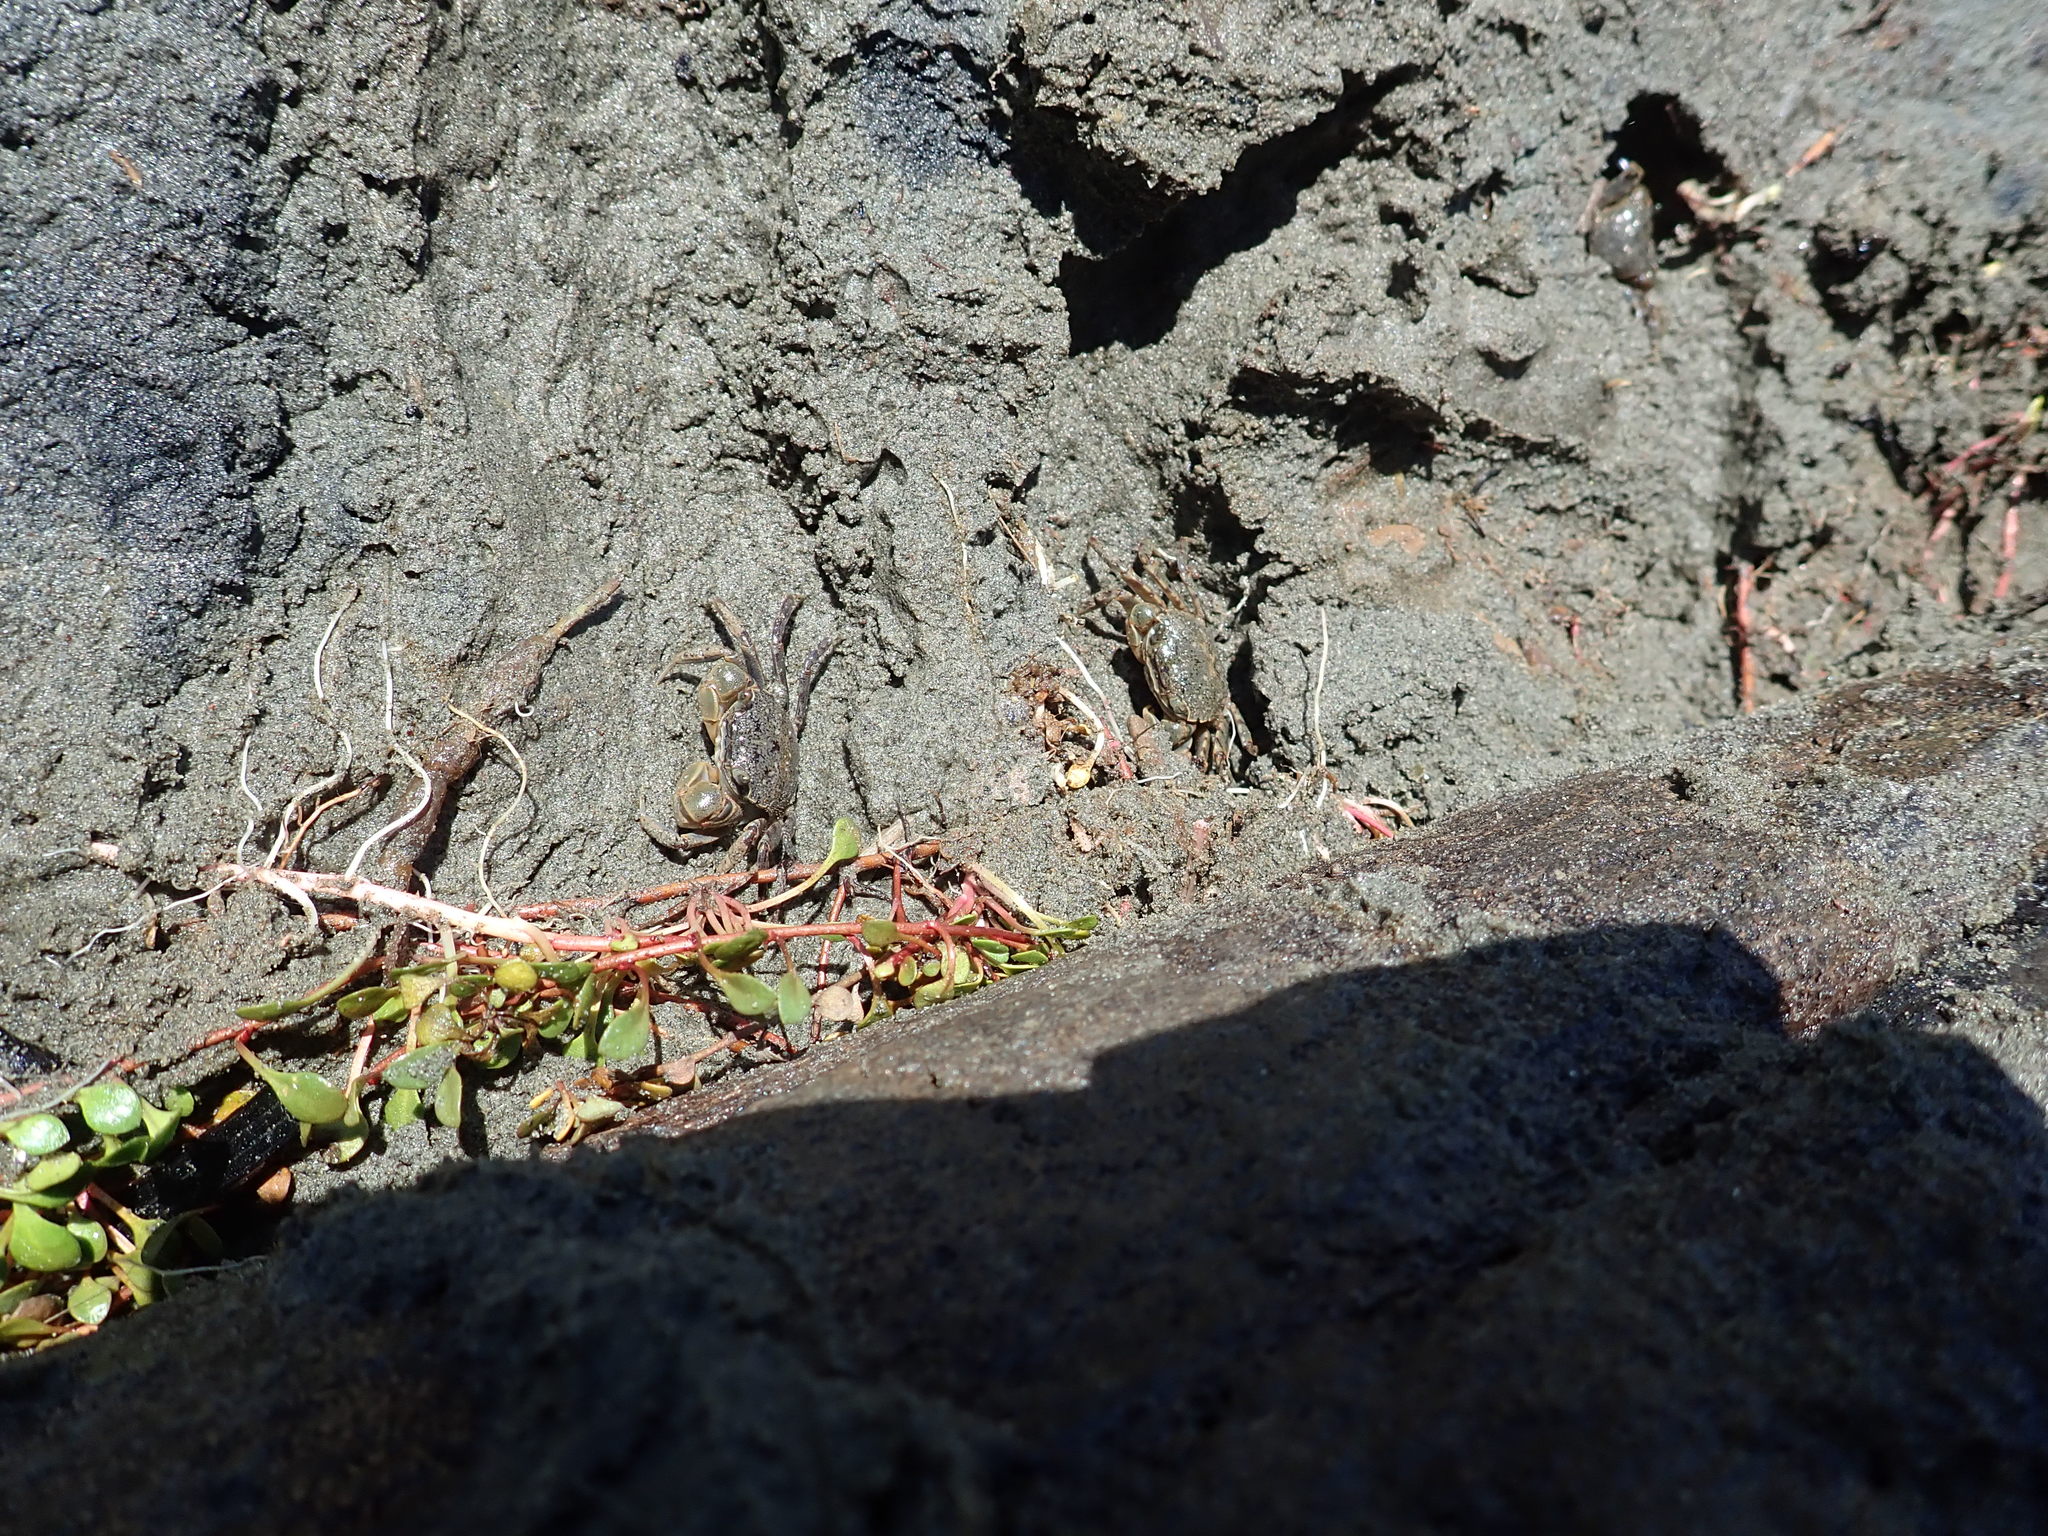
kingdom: Animalia
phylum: Arthropoda
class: Malacostraca
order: Decapoda
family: Varunidae
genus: Austrohelice
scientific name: Austrohelice crassa
